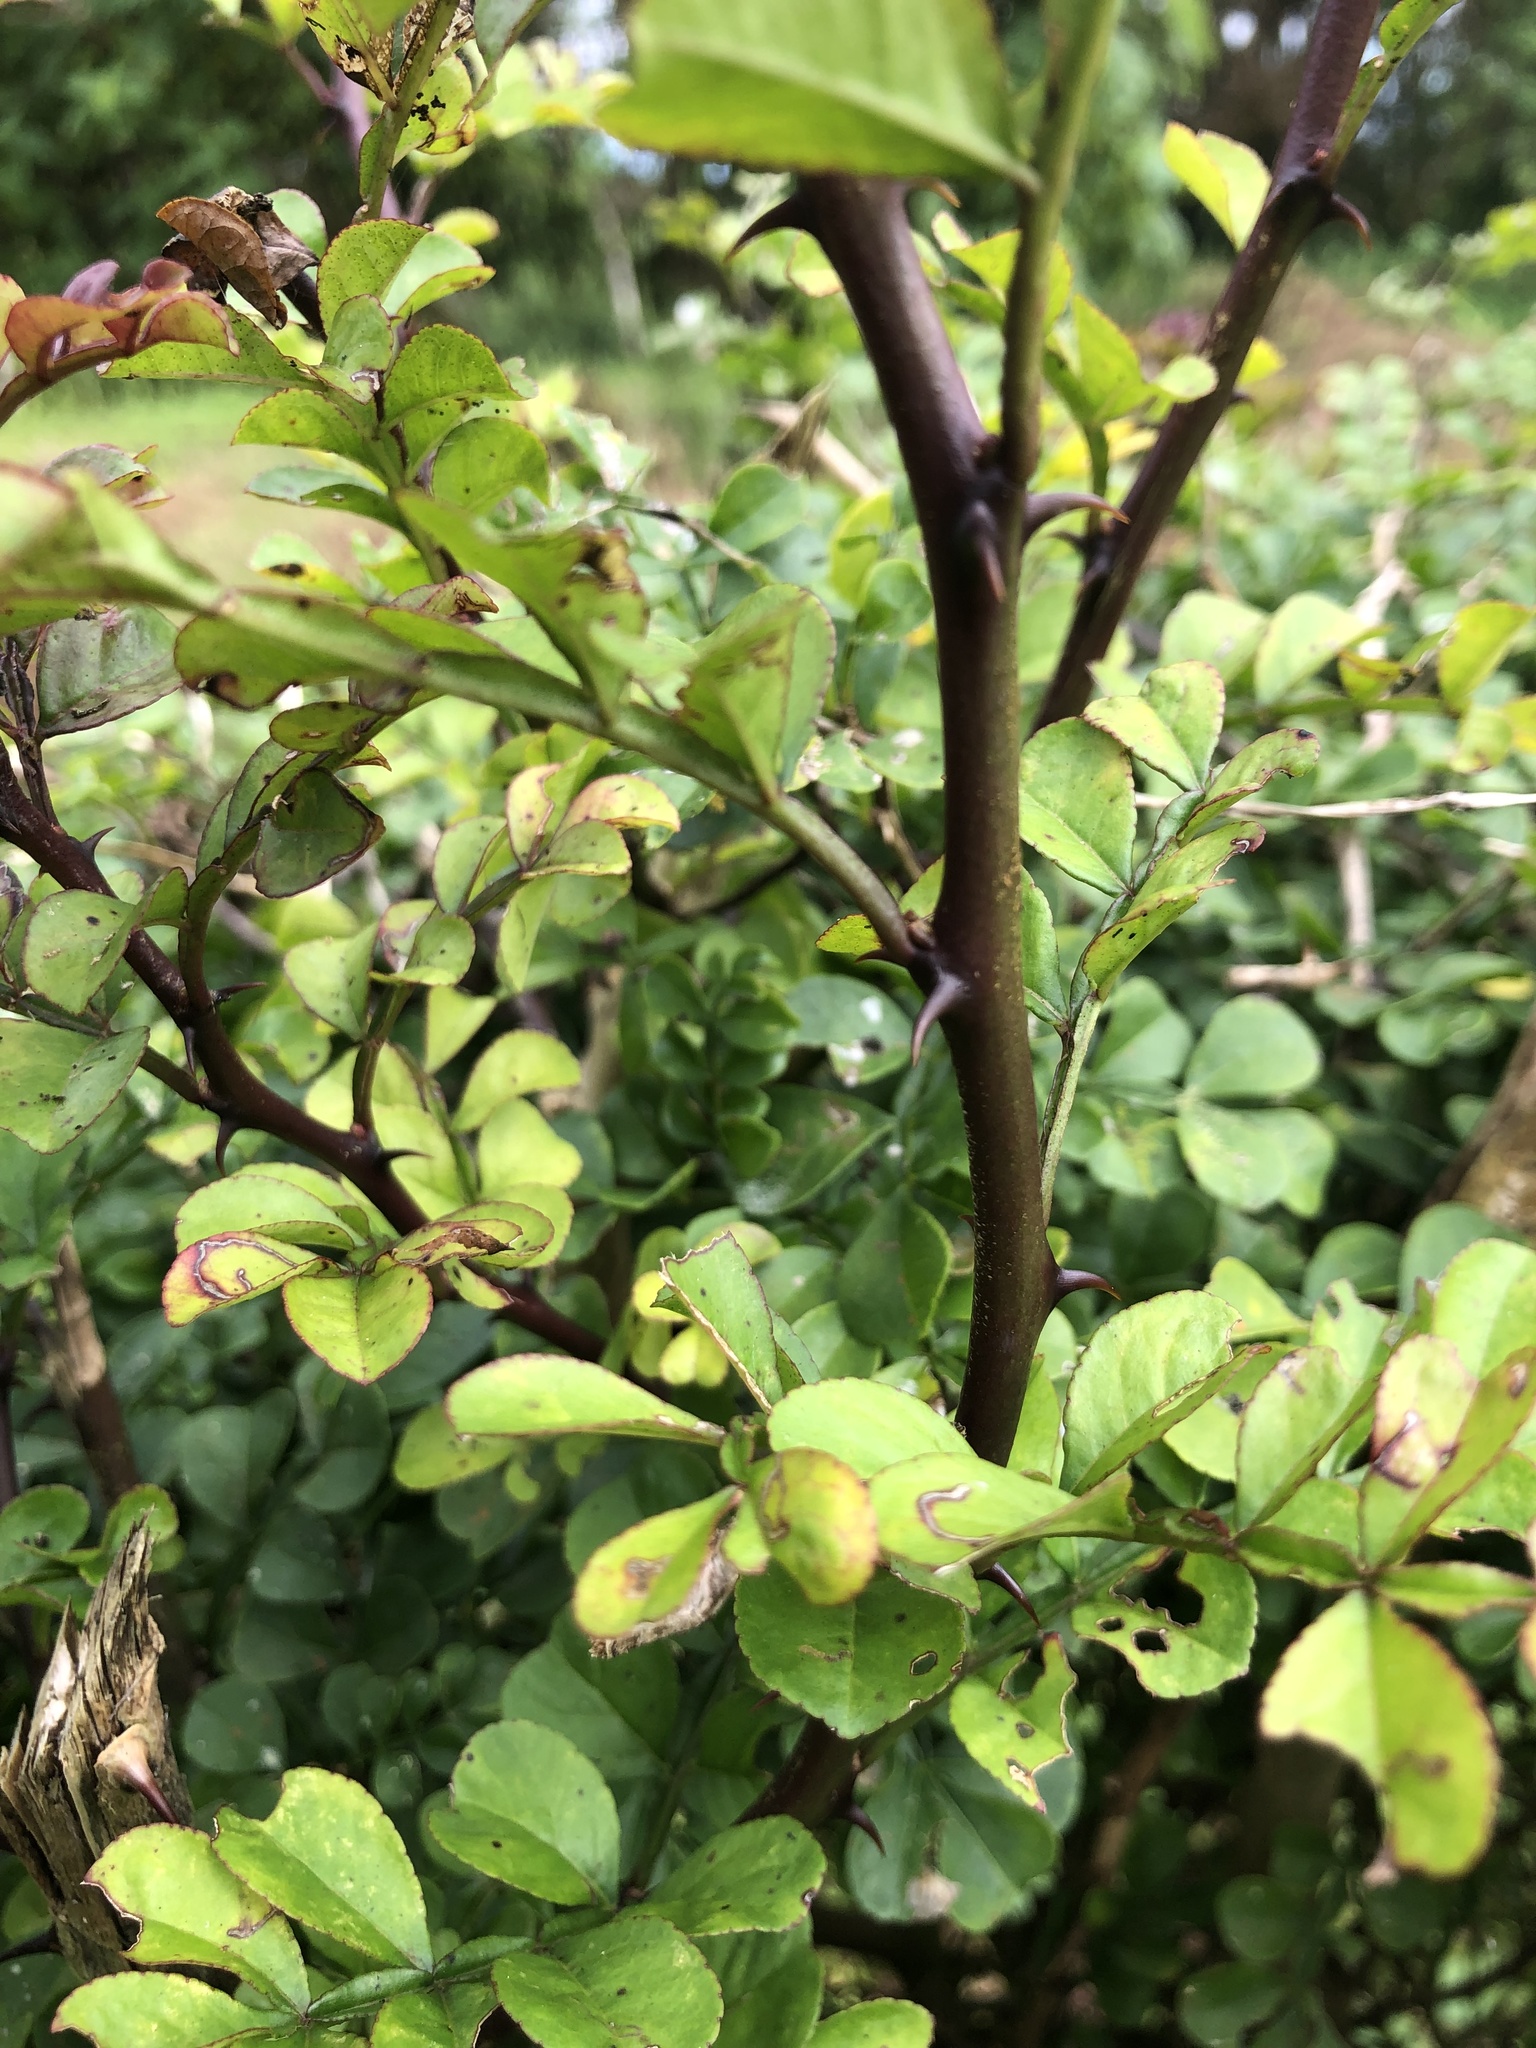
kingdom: Plantae
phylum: Tracheophyta
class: Magnoliopsida
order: Sapindales
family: Rutaceae
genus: Zanthoxylum
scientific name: Zanthoxylum fagara
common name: Lime prickly-ash
